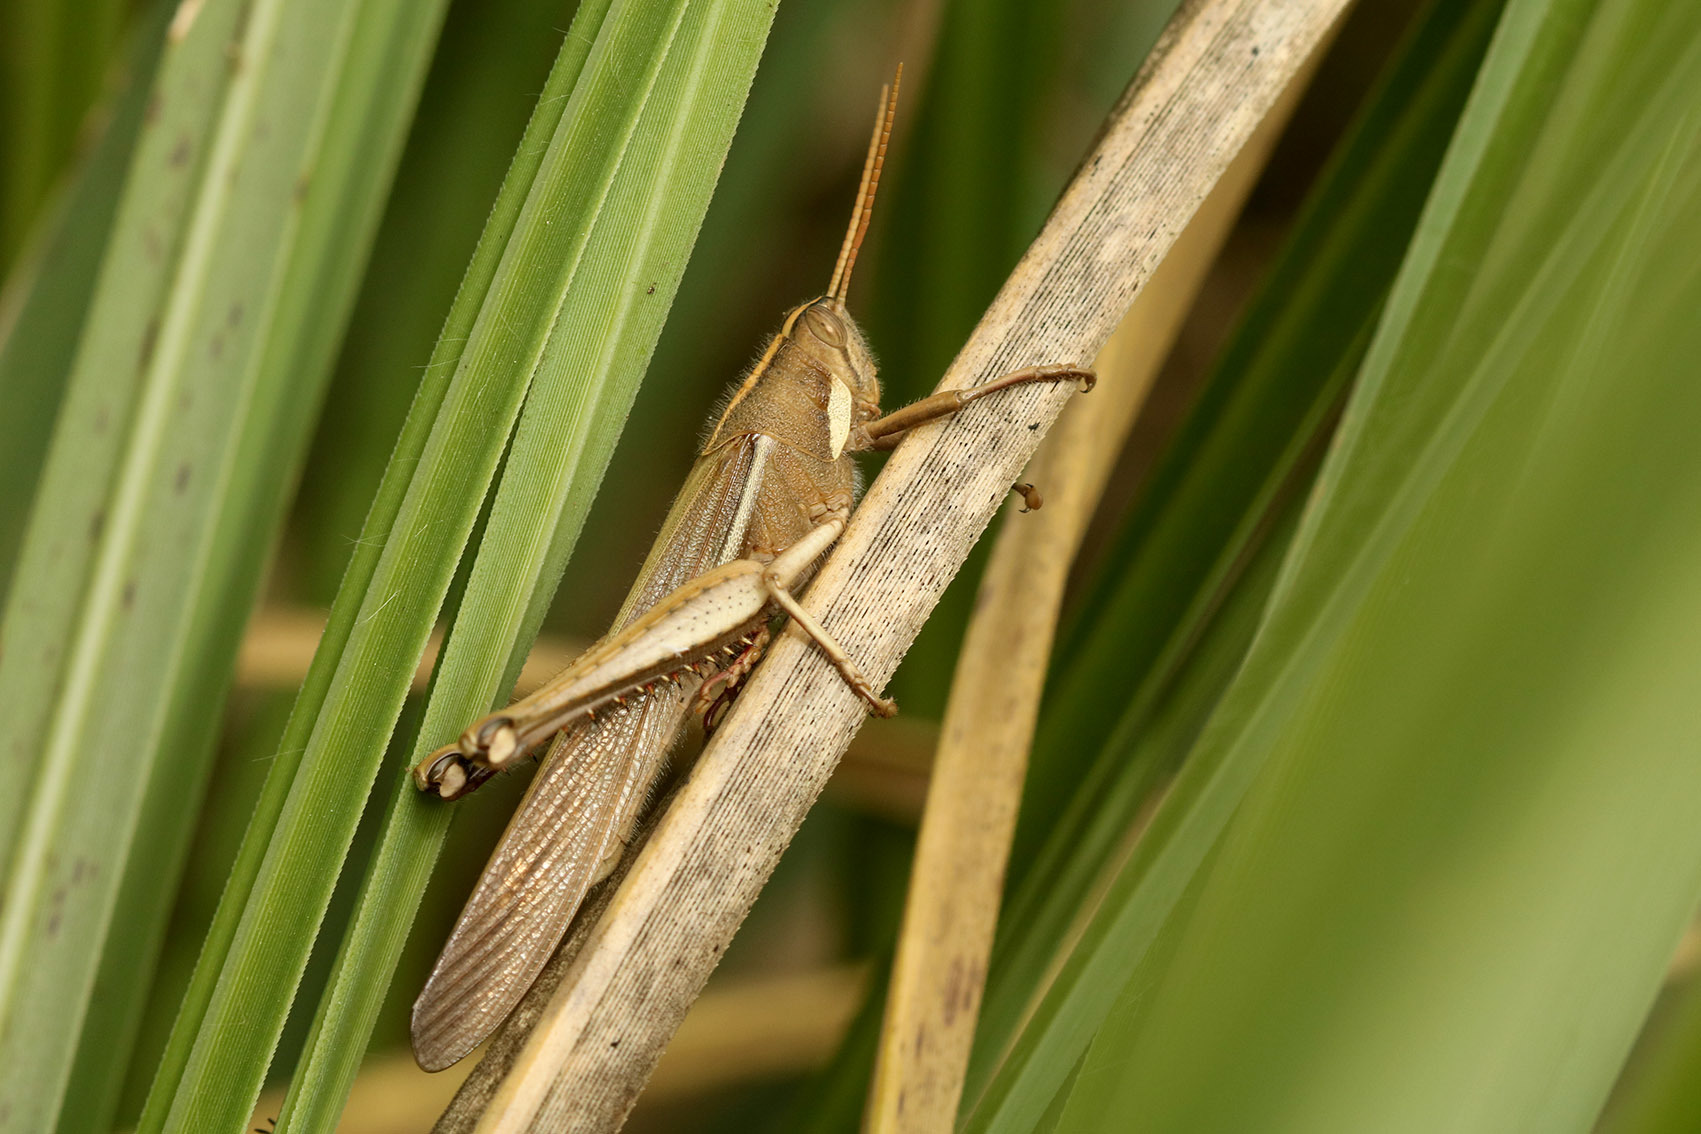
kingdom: Animalia
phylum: Arthropoda
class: Insecta
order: Orthoptera
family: Acrididae
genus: Schistocerca
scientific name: Schistocerca flavofasciata
